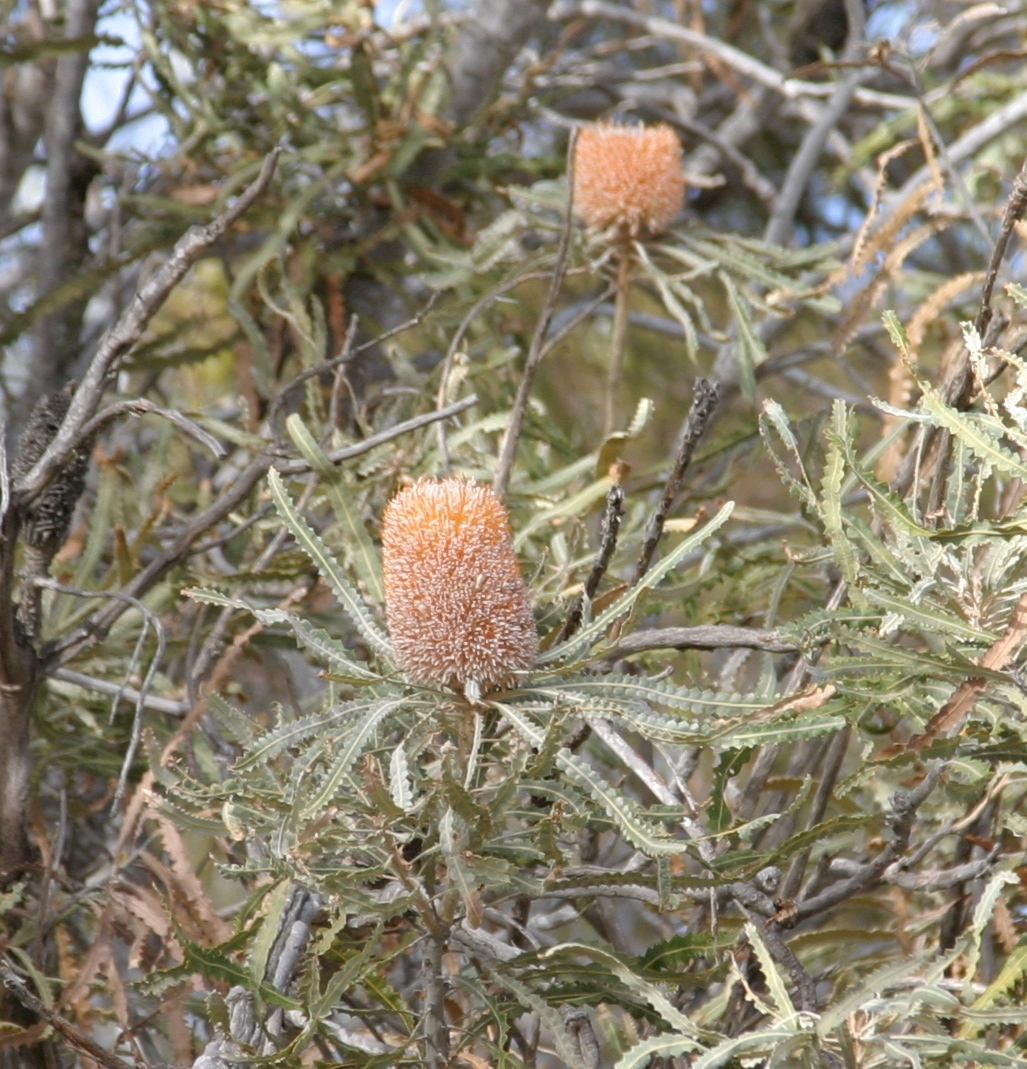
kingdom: Plantae
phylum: Tracheophyta
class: Magnoliopsida
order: Proteales
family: Proteaceae
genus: Banksia
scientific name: Banksia prionotes
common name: Acorn banksia
